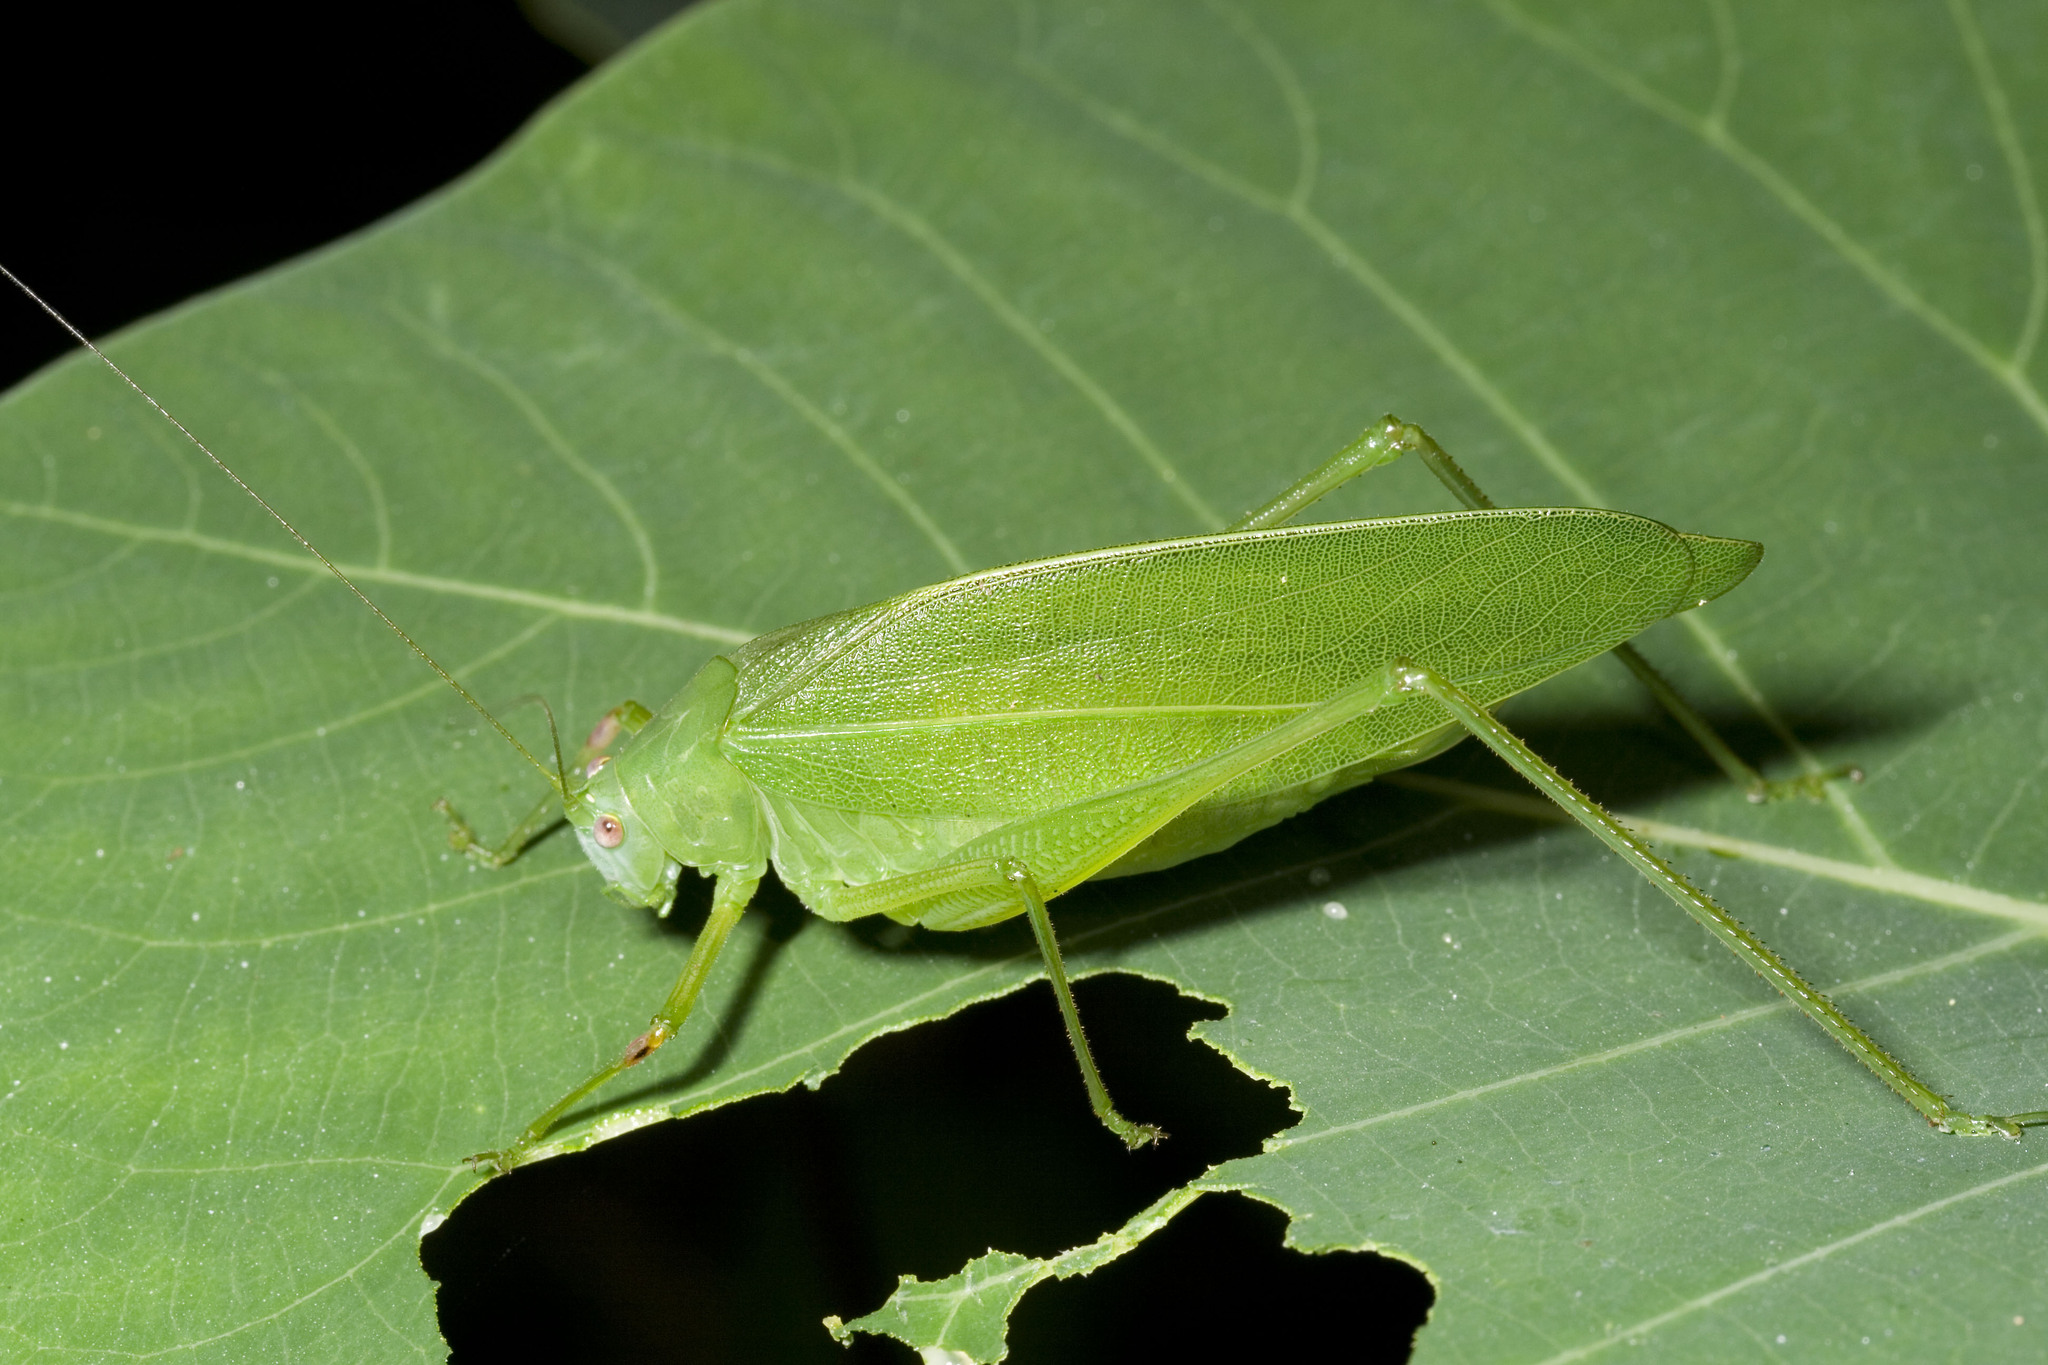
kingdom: Animalia
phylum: Arthropoda
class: Insecta
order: Orthoptera
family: Tettigoniidae
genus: Phaulula
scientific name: Phaulula daitoensis
